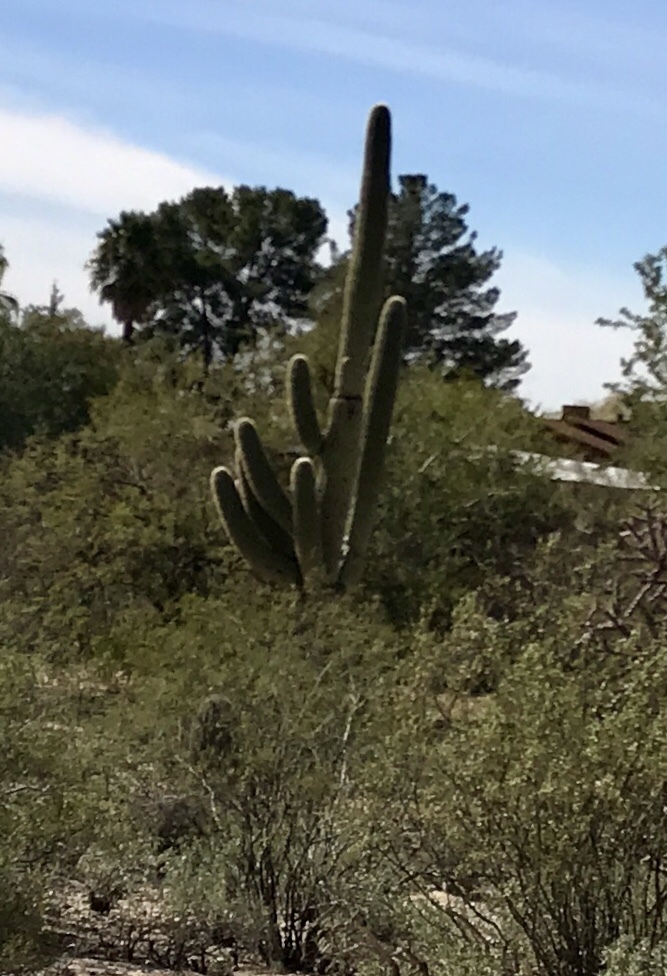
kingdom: Plantae
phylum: Tracheophyta
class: Magnoliopsida
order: Caryophyllales
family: Cactaceae
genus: Carnegiea
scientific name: Carnegiea gigantea
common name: Saguaro
